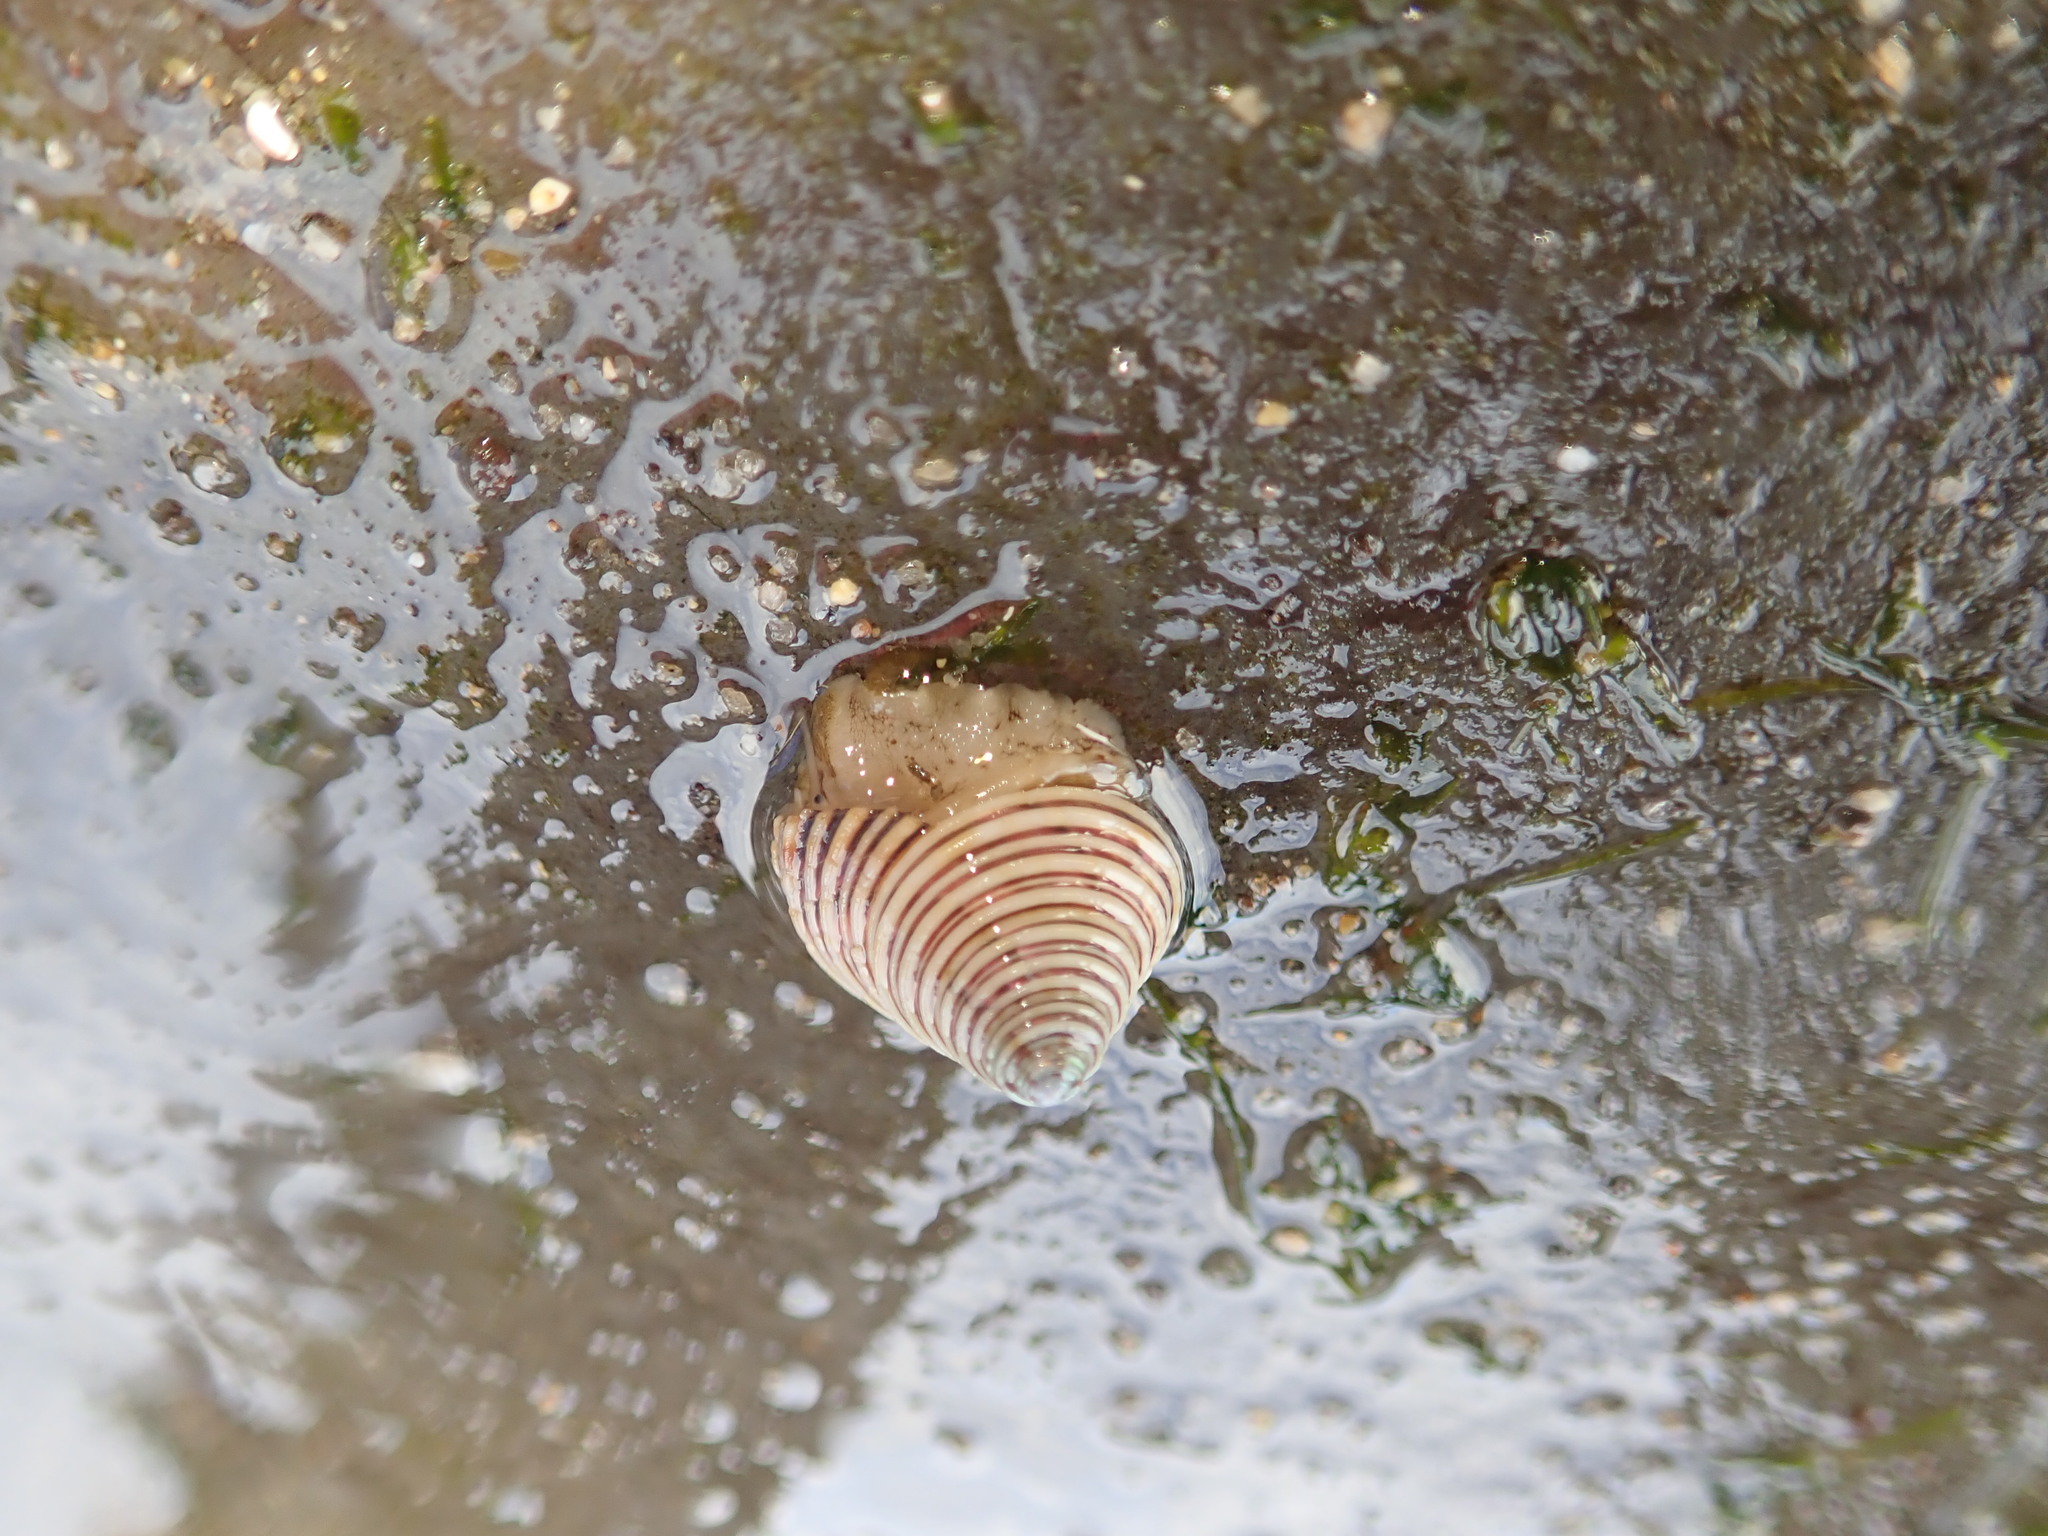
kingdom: Animalia
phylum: Mollusca
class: Gastropoda
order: Trochida
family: Calliostomatidae
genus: Calliostoma
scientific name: Calliostoma canaliculatum
